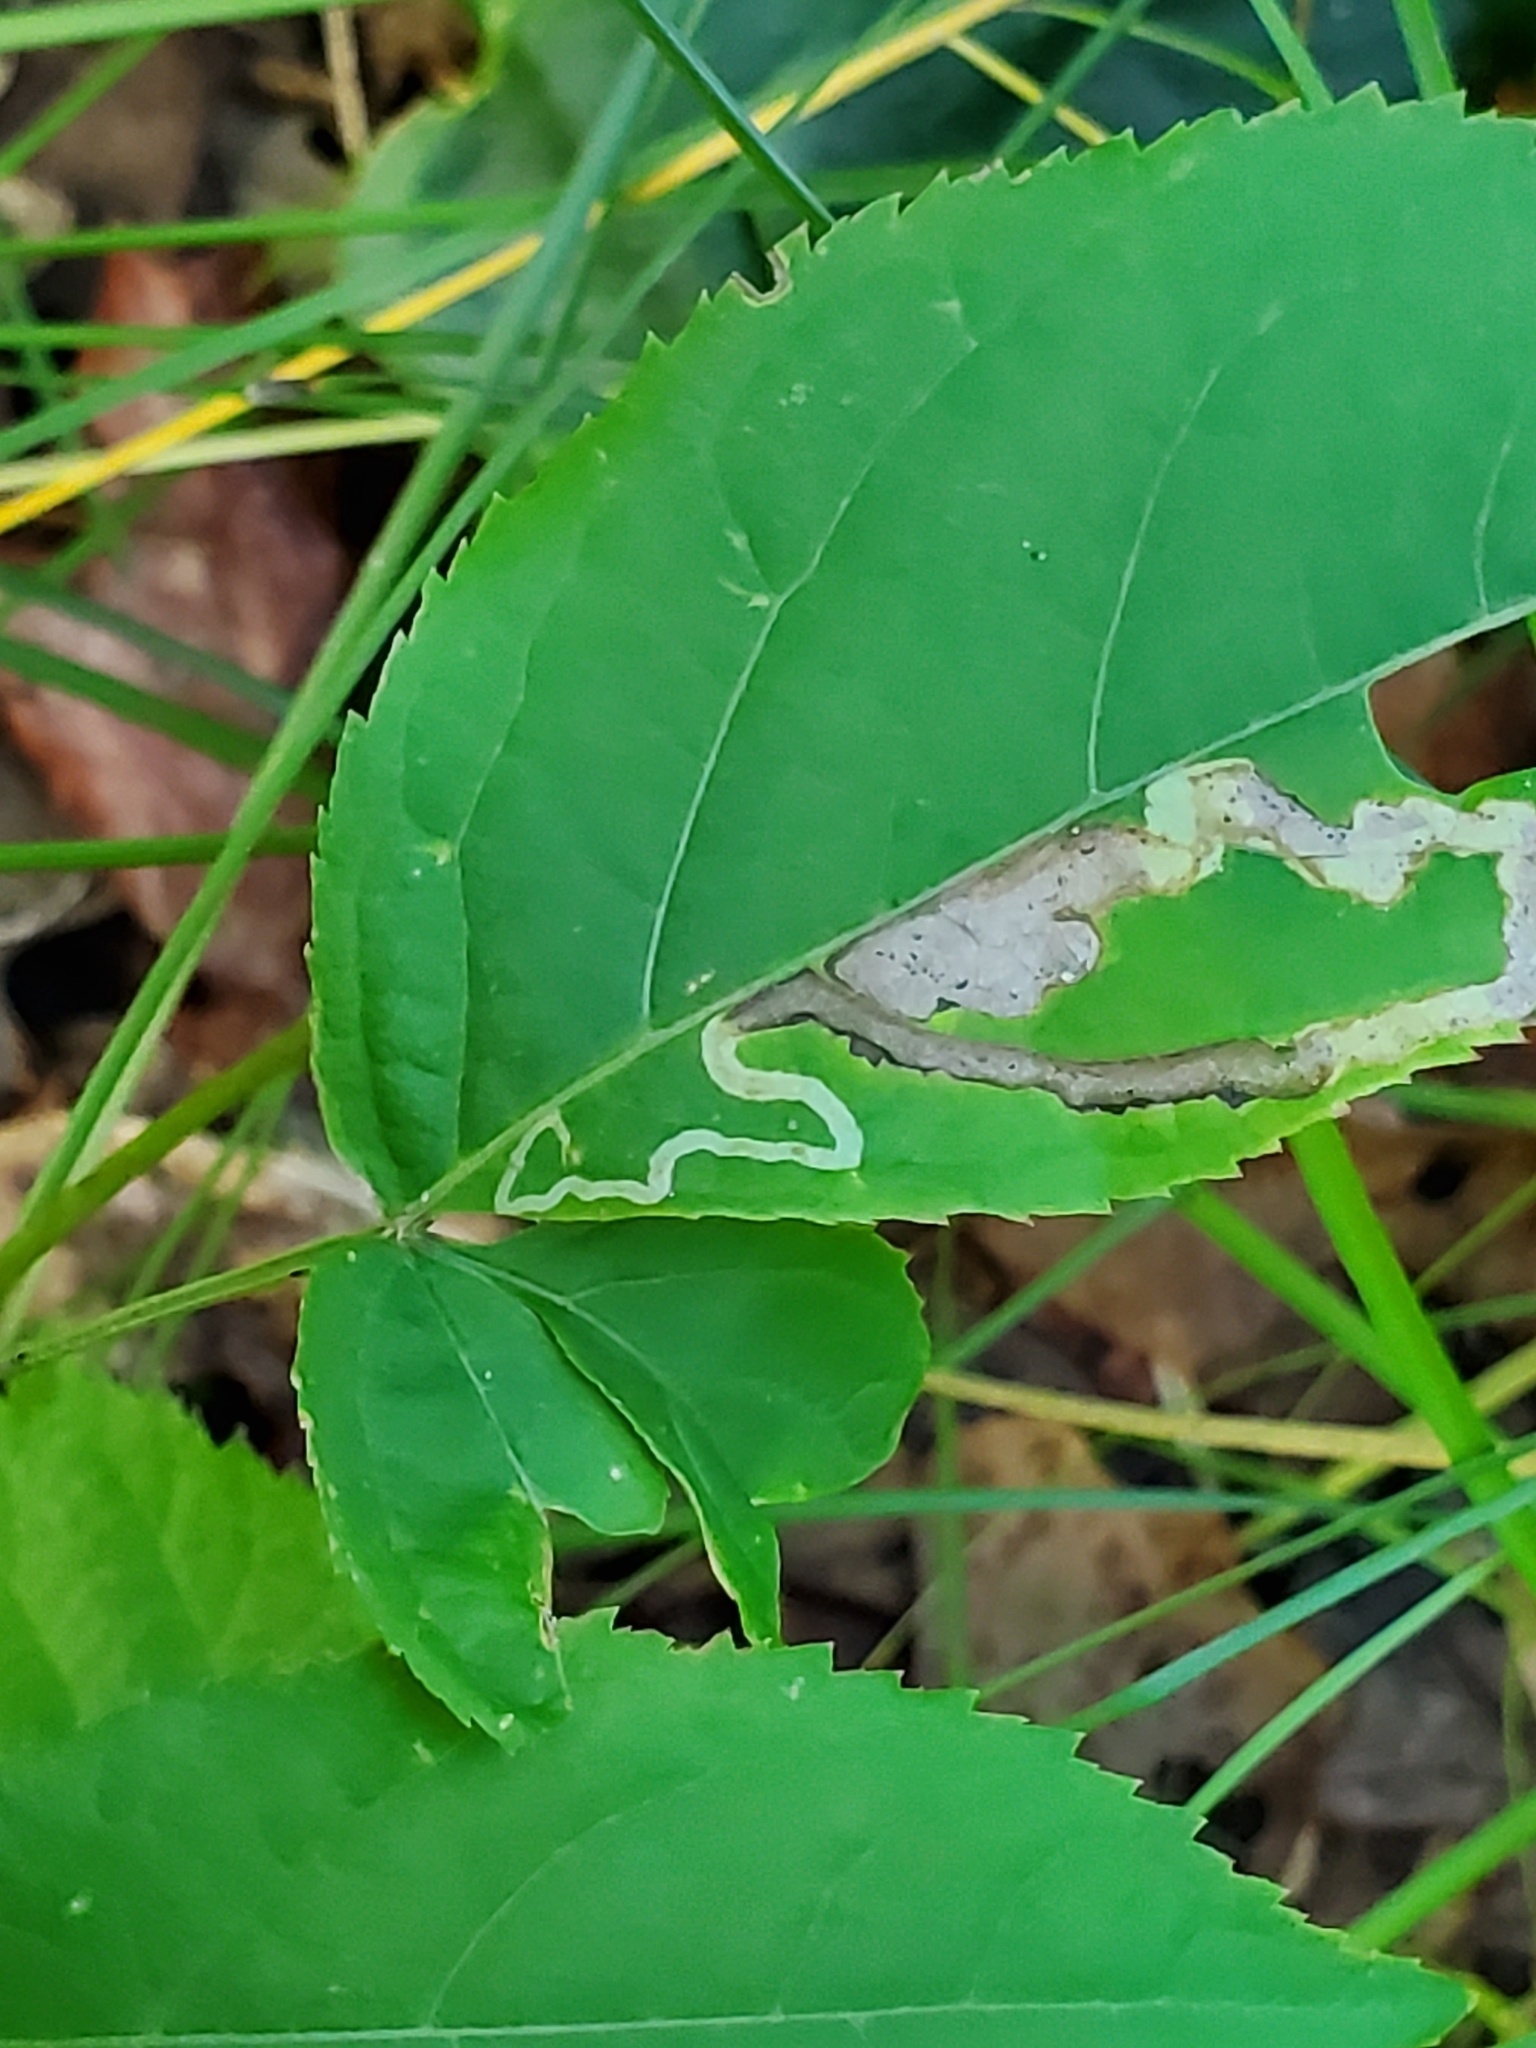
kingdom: Animalia
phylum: Arthropoda
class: Insecta
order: Diptera
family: Agromyzidae
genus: Phytomyza
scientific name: Phytomyza aralivora
